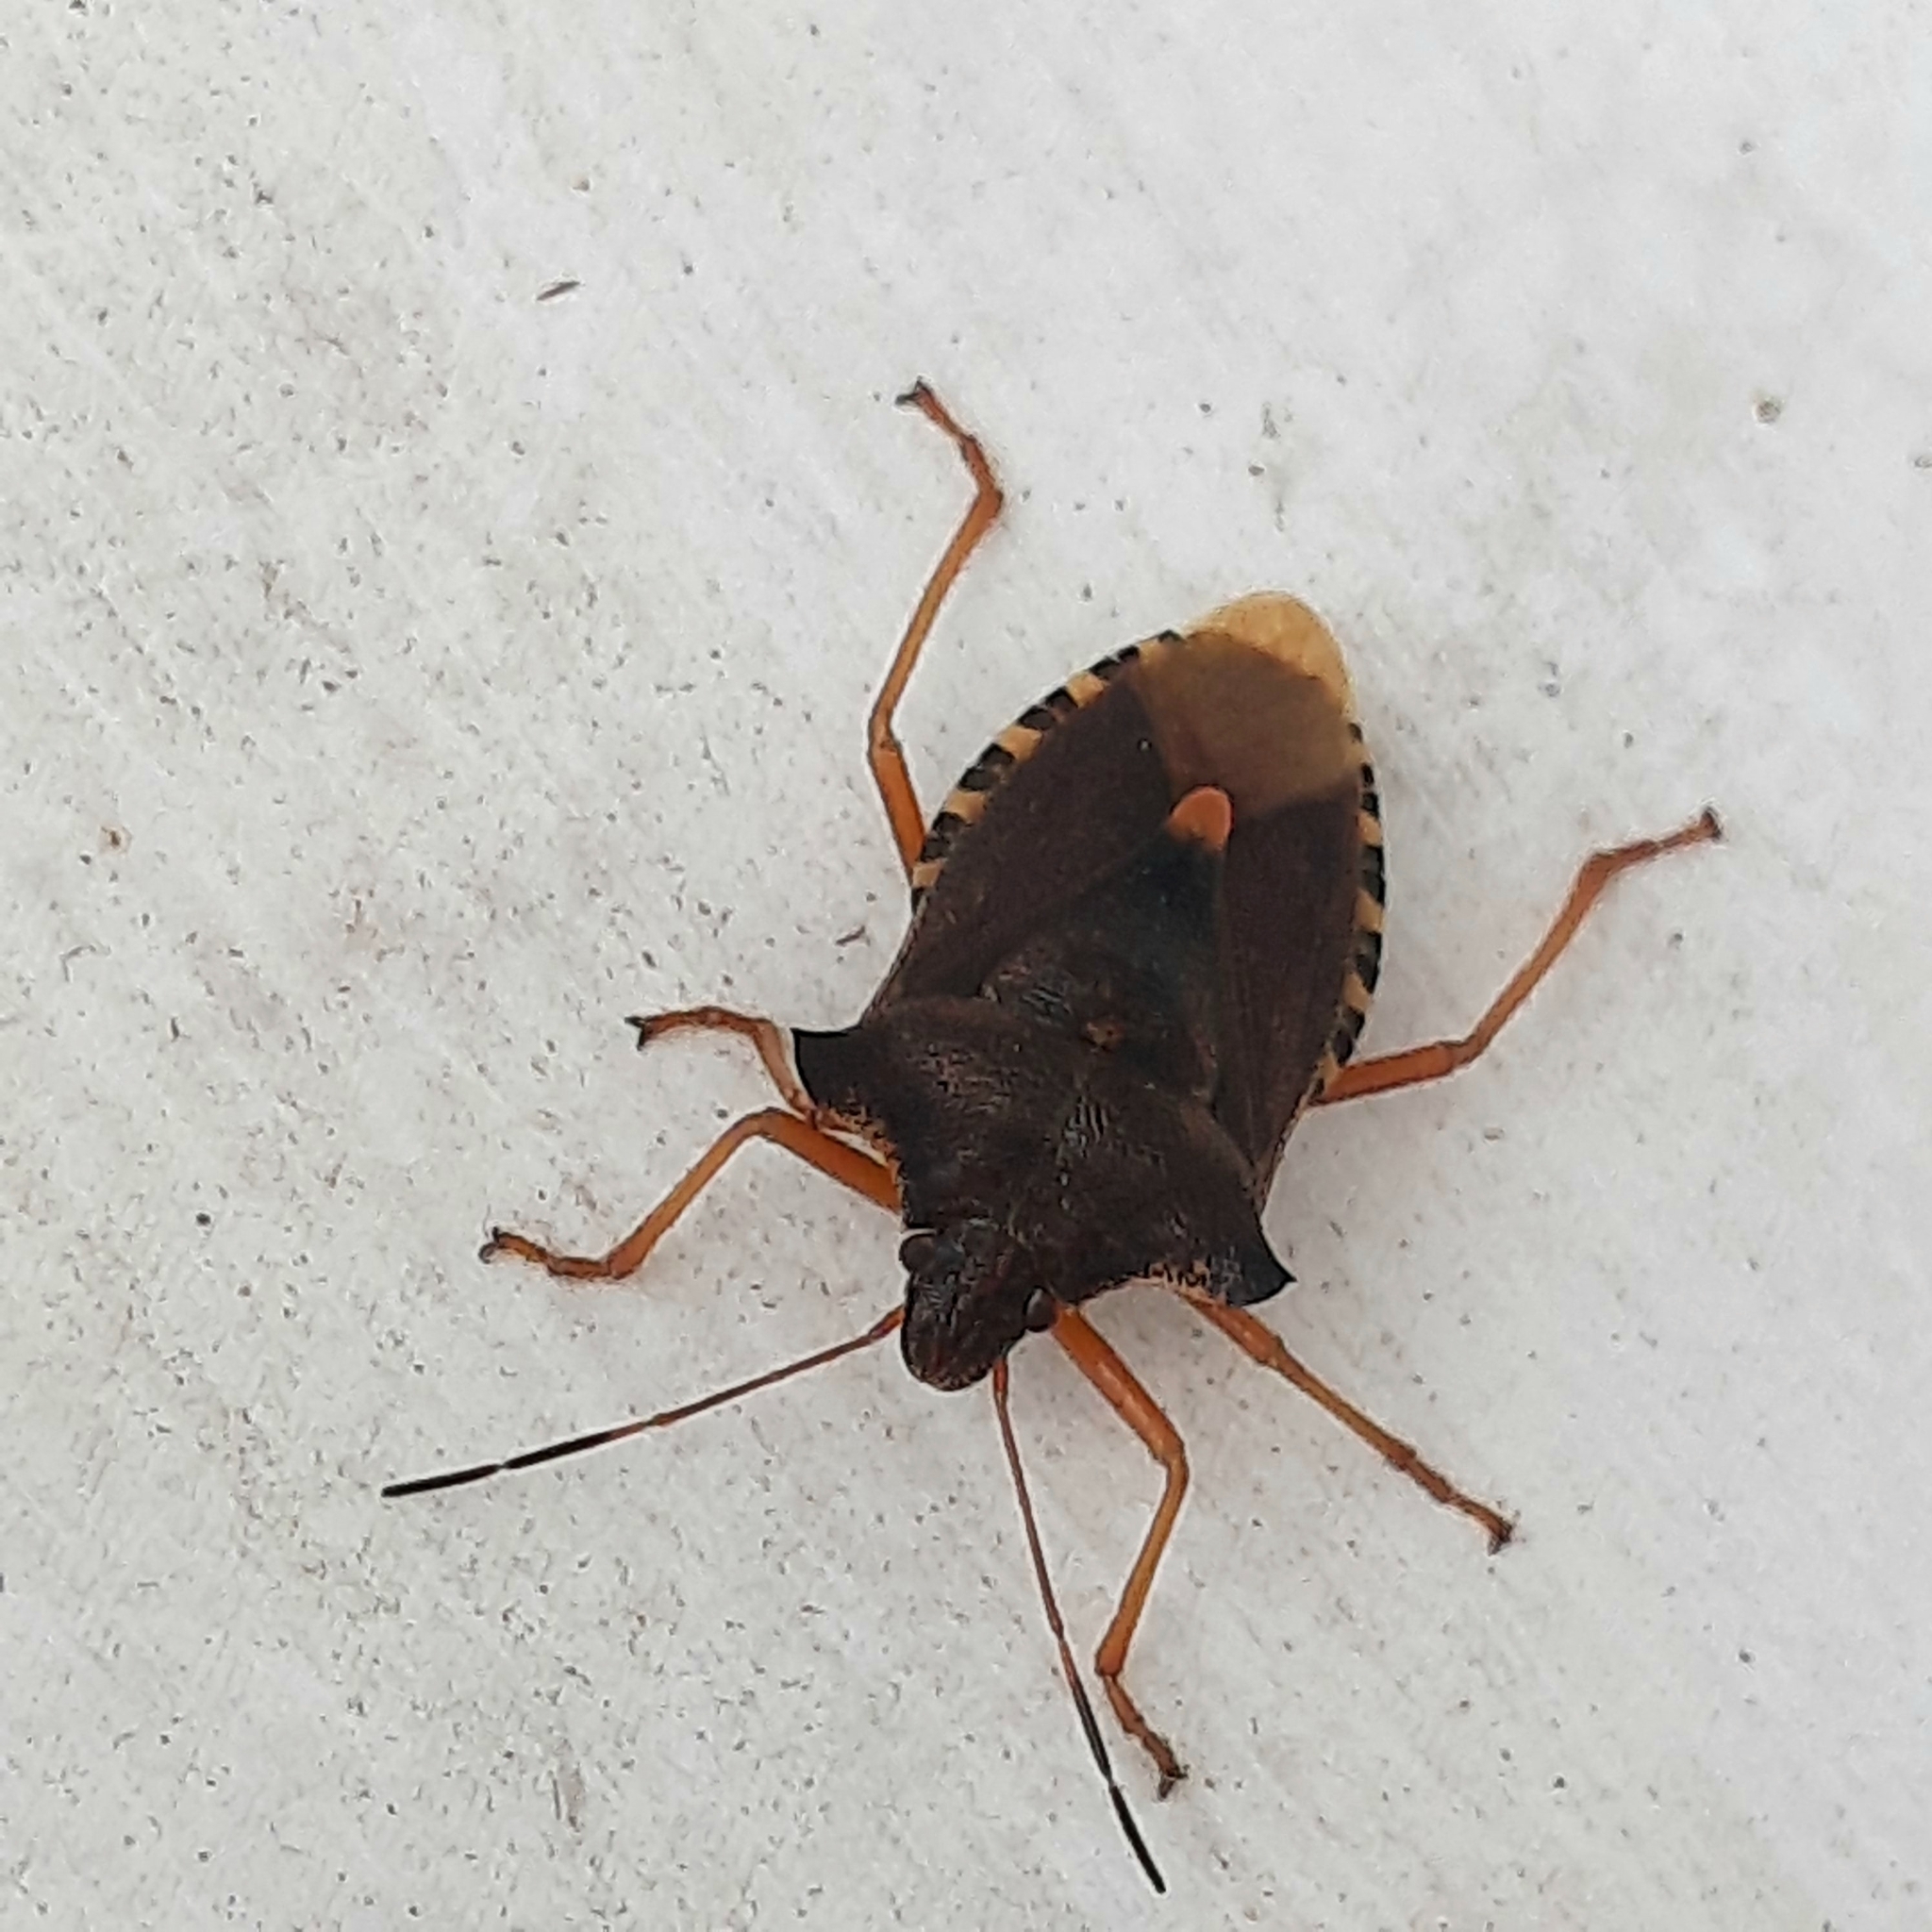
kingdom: Animalia
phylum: Arthropoda
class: Insecta
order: Hemiptera
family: Pentatomidae
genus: Pentatoma
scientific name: Pentatoma rufipes
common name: Forest bug
